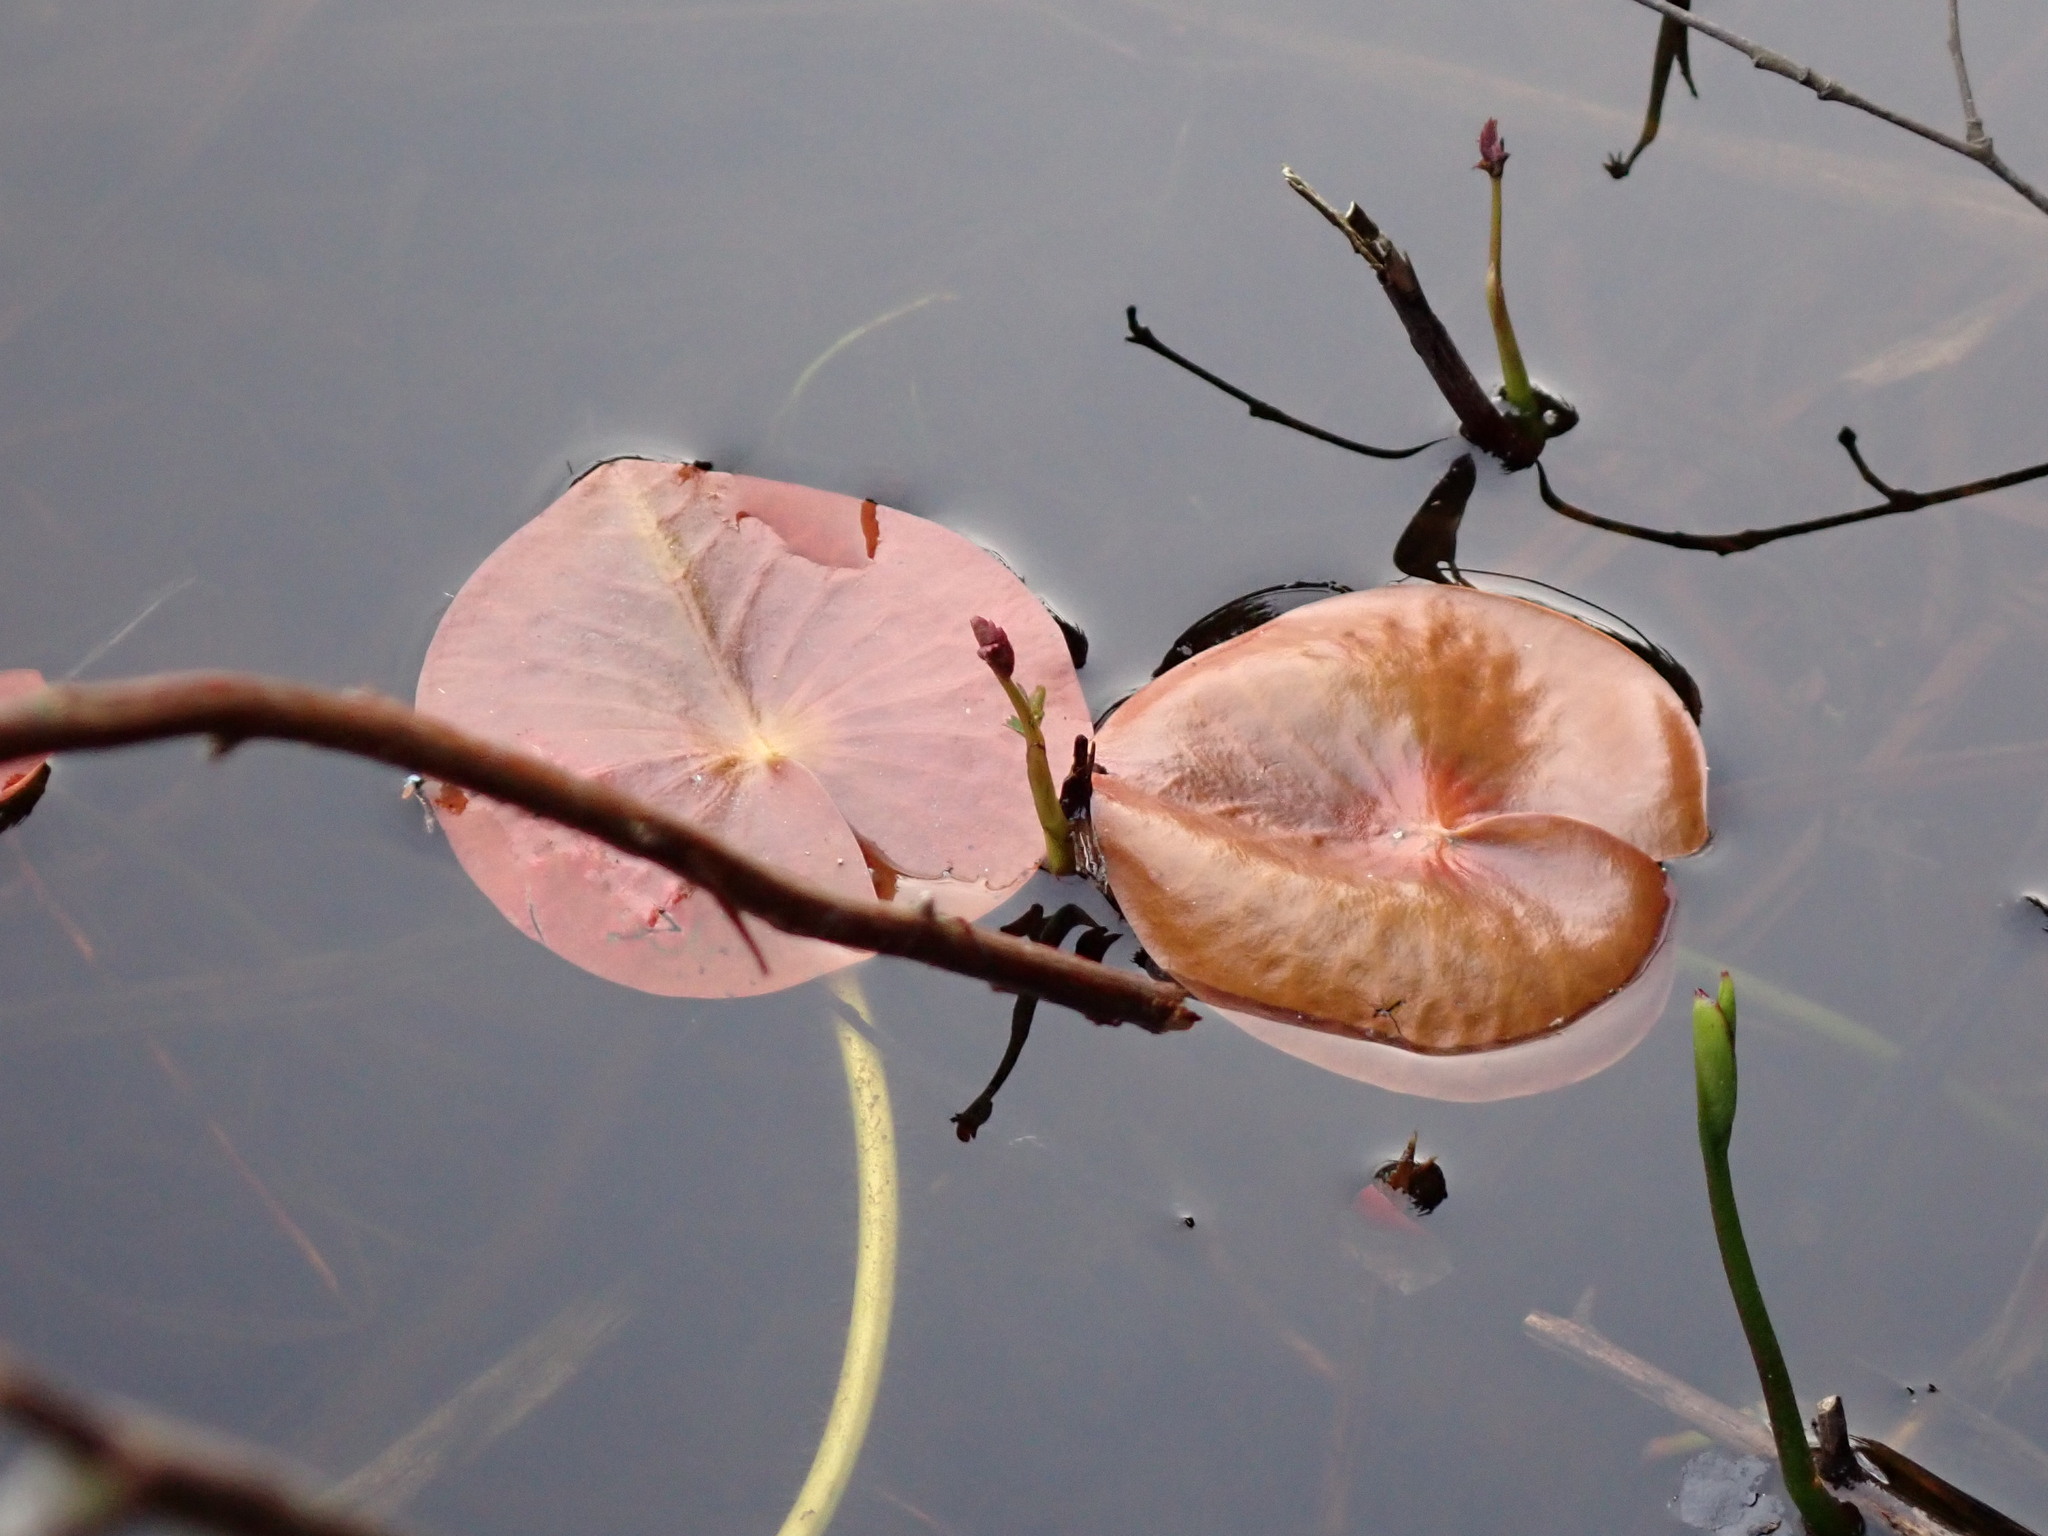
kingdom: Plantae
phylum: Tracheophyta
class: Magnoliopsida
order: Nymphaeales
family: Nymphaeaceae
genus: Nymphaea
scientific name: Nymphaea odorata
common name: Fragrant water-lily
